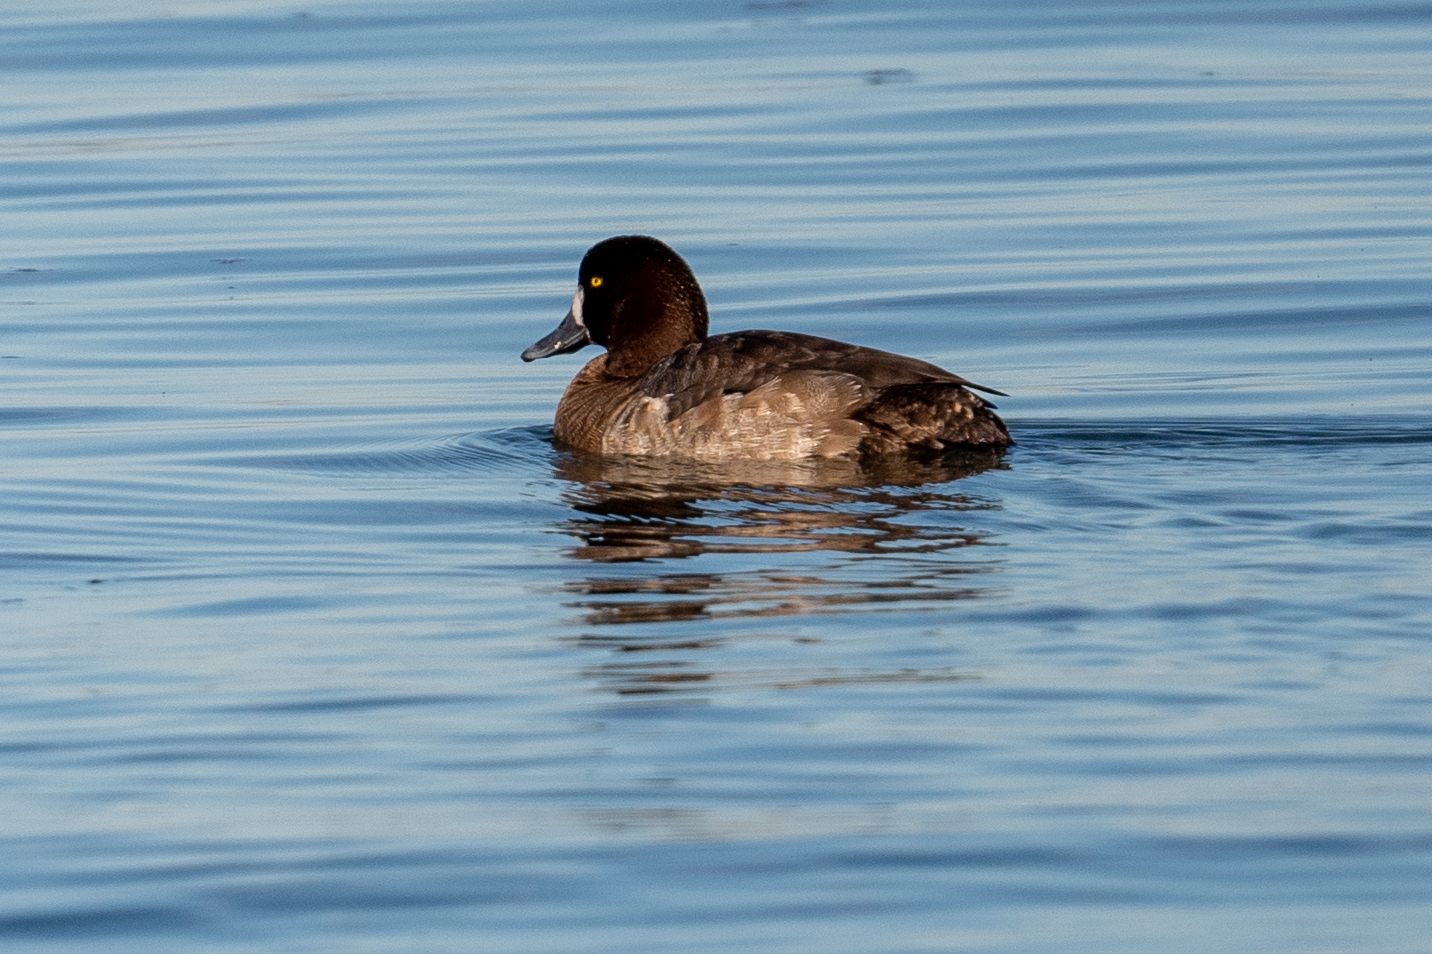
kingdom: Animalia
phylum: Chordata
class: Aves
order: Anseriformes
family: Anatidae
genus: Aythya
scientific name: Aythya marila
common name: Greater scaup
